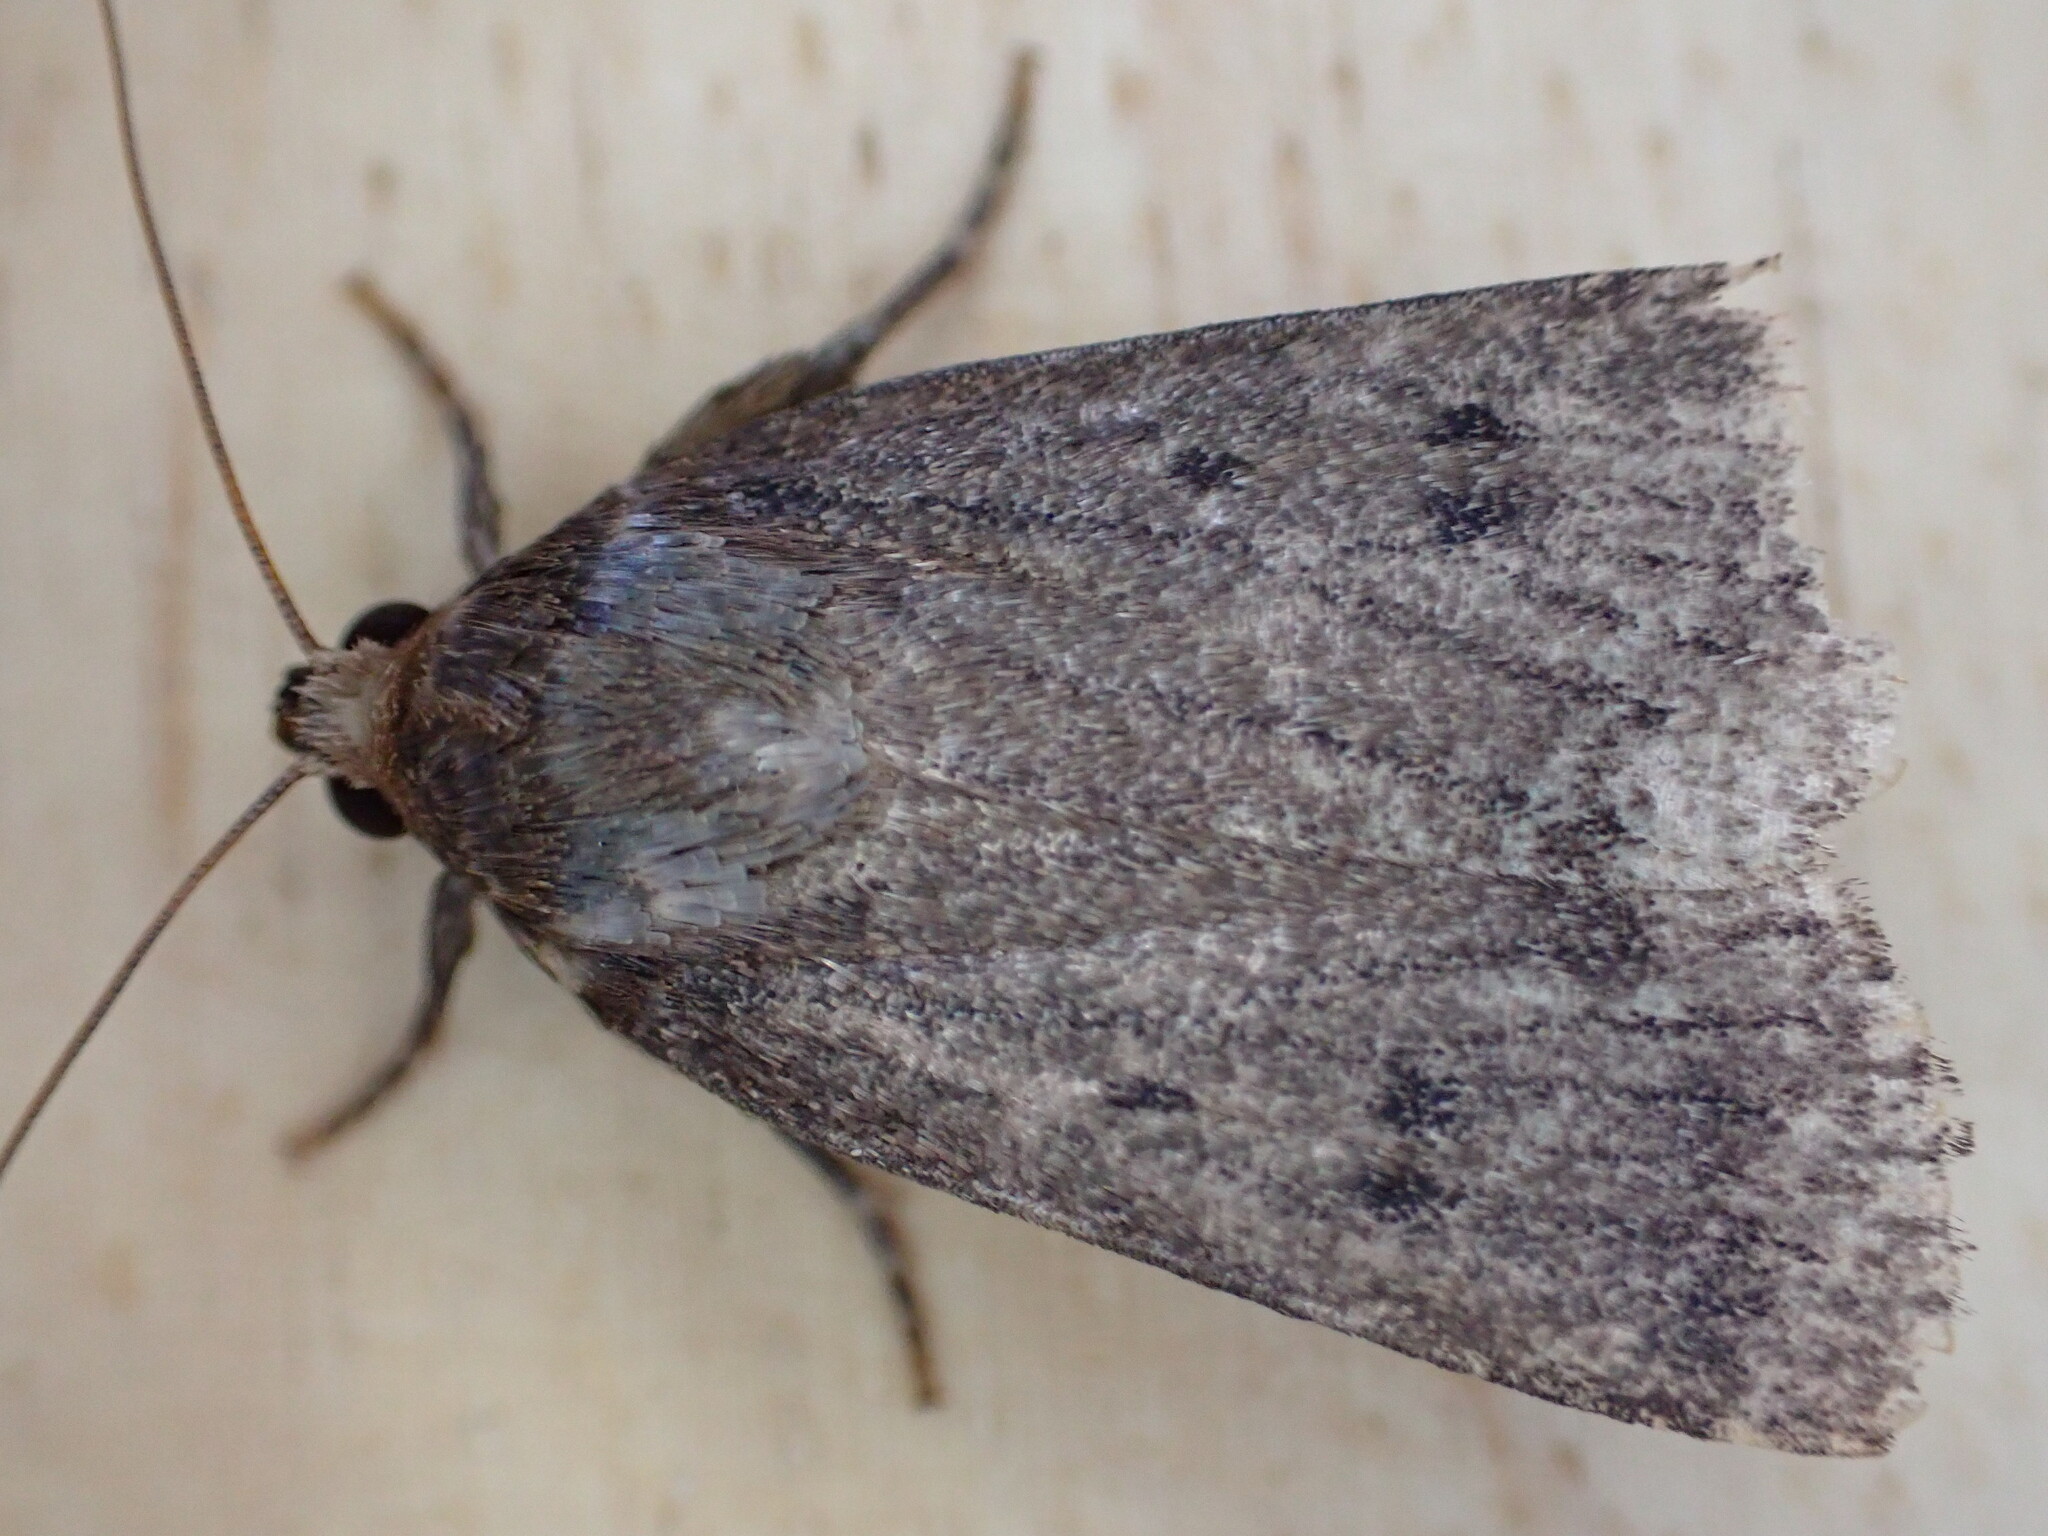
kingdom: Animalia
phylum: Arthropoda
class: Insecta
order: Lepidoptera
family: Noctuidae
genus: Amphipyra
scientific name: Amphipyra tragopoginis
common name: Mouse moth
